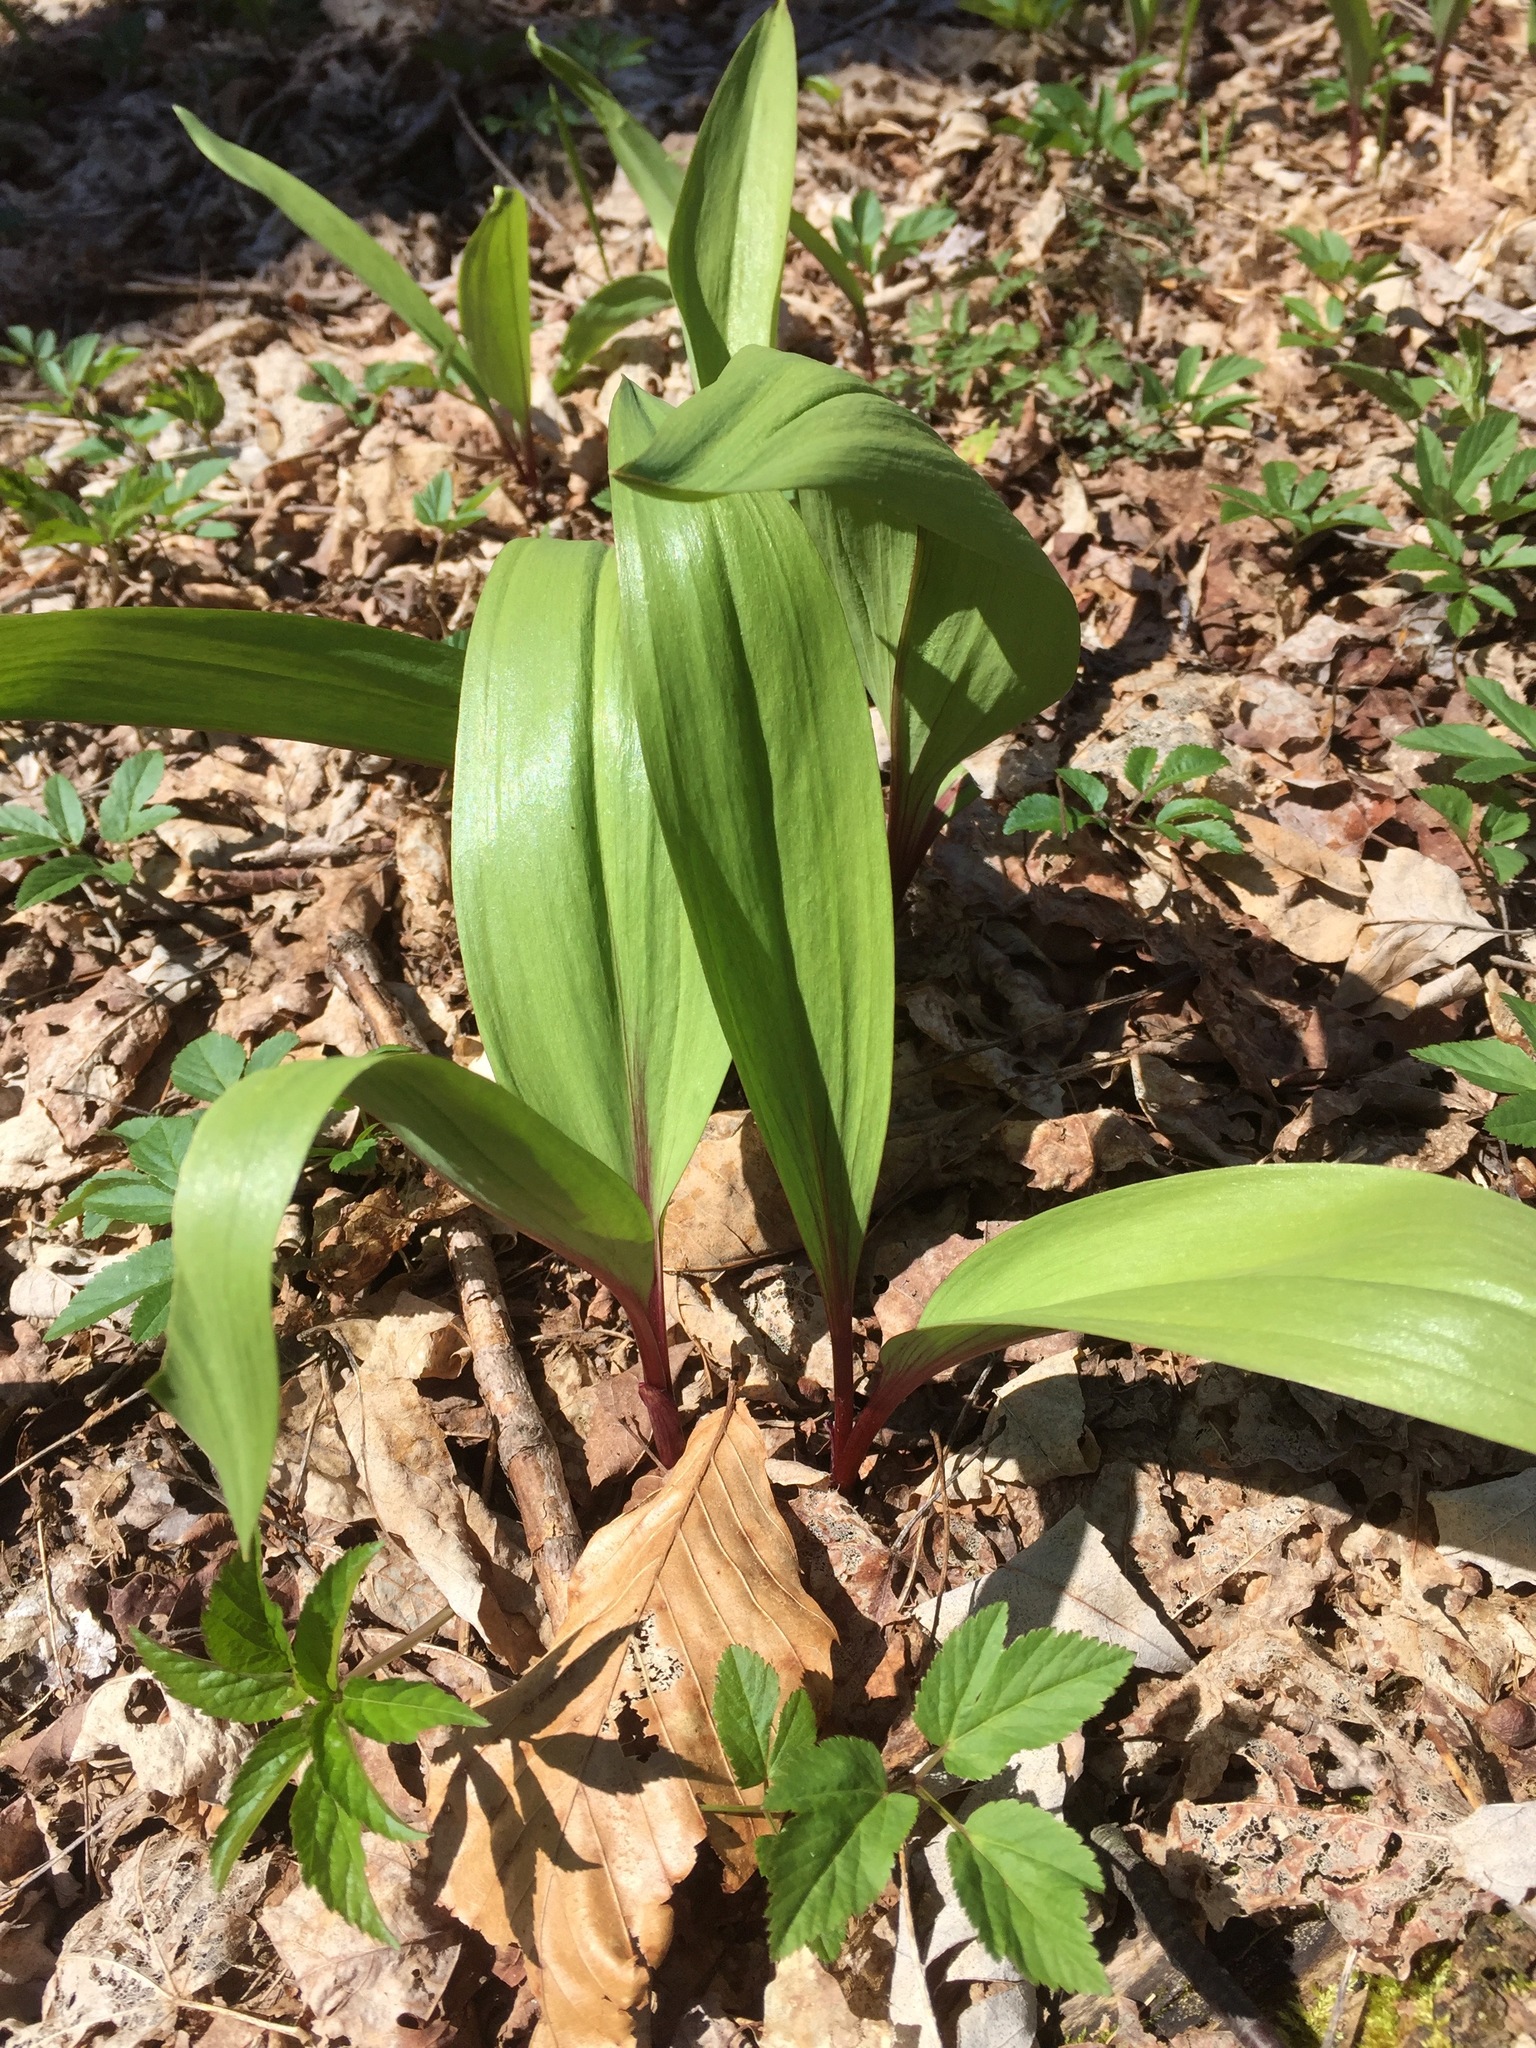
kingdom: Plantae
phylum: Tracheophyta
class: Liliopsida
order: Asparagales
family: Amaryllidaceae
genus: Allium
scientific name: Allium tricoccum
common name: Ramp
